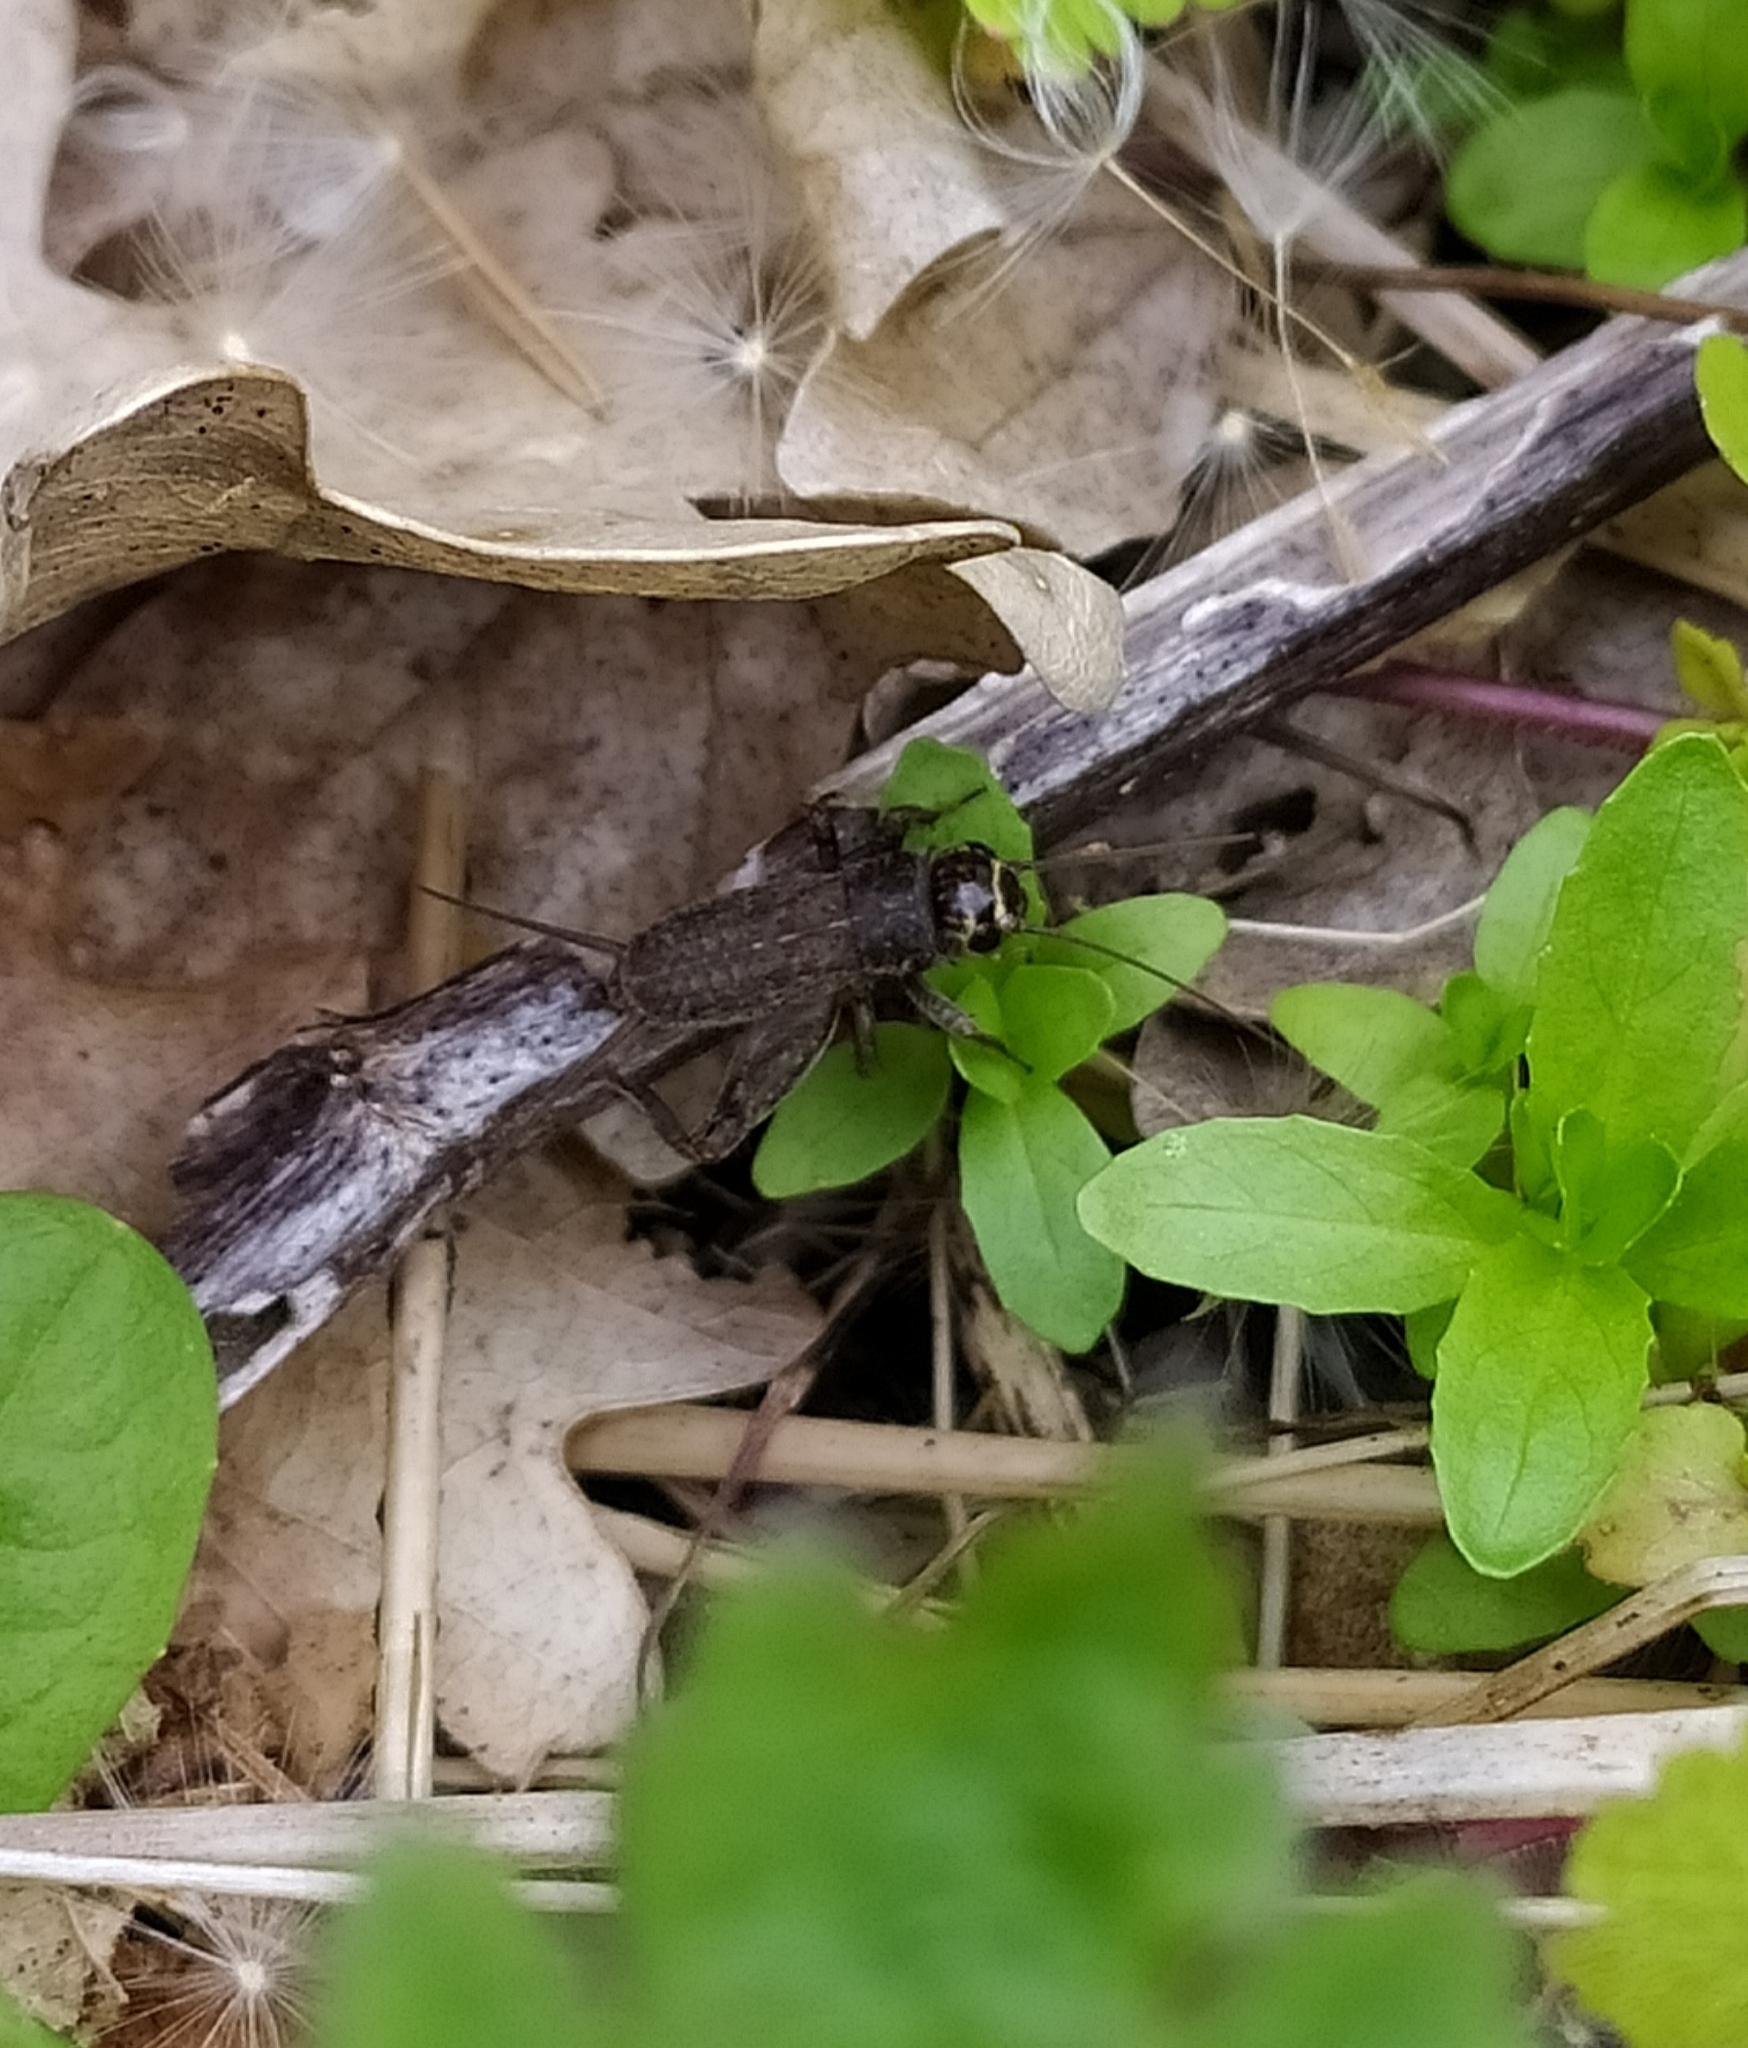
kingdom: Animalia
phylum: Arthropoda
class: Insecta
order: Orthoptera
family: Gryllidae
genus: Eumodicogryllus
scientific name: Eumodicogryllus bordigalensis
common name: Bordeaux cricket
